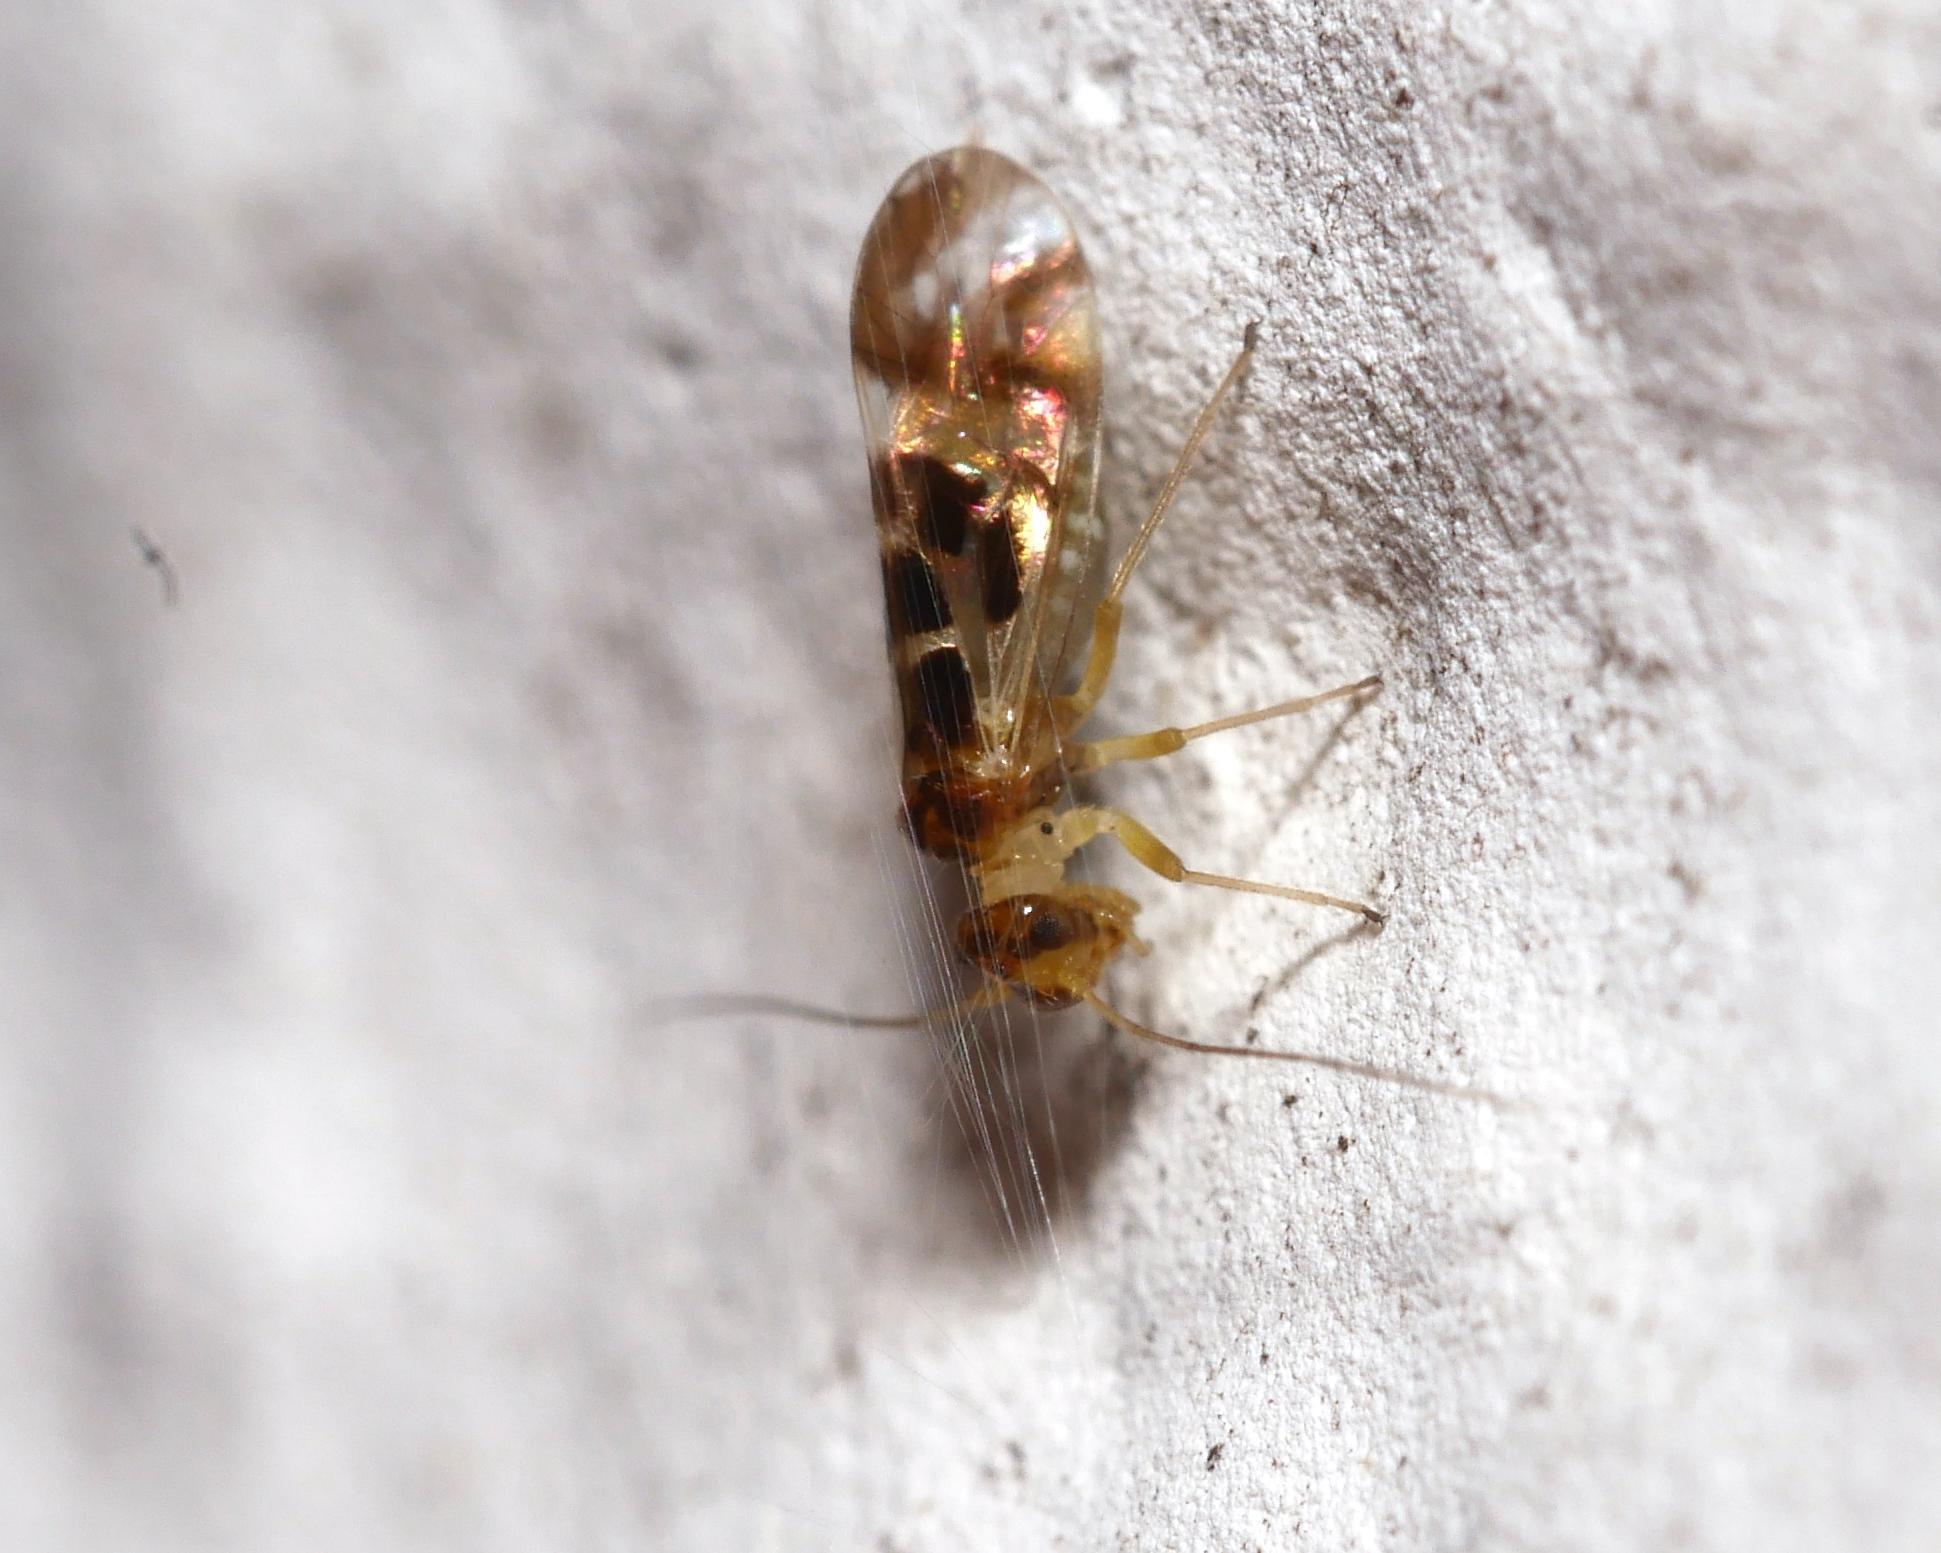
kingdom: Animalia
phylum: Arthropoda
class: Insecta
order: Psocodea
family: Stenopsocidae
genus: Graphopsocus
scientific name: Graphopsocus cruciatus
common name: Lizard bark louse
